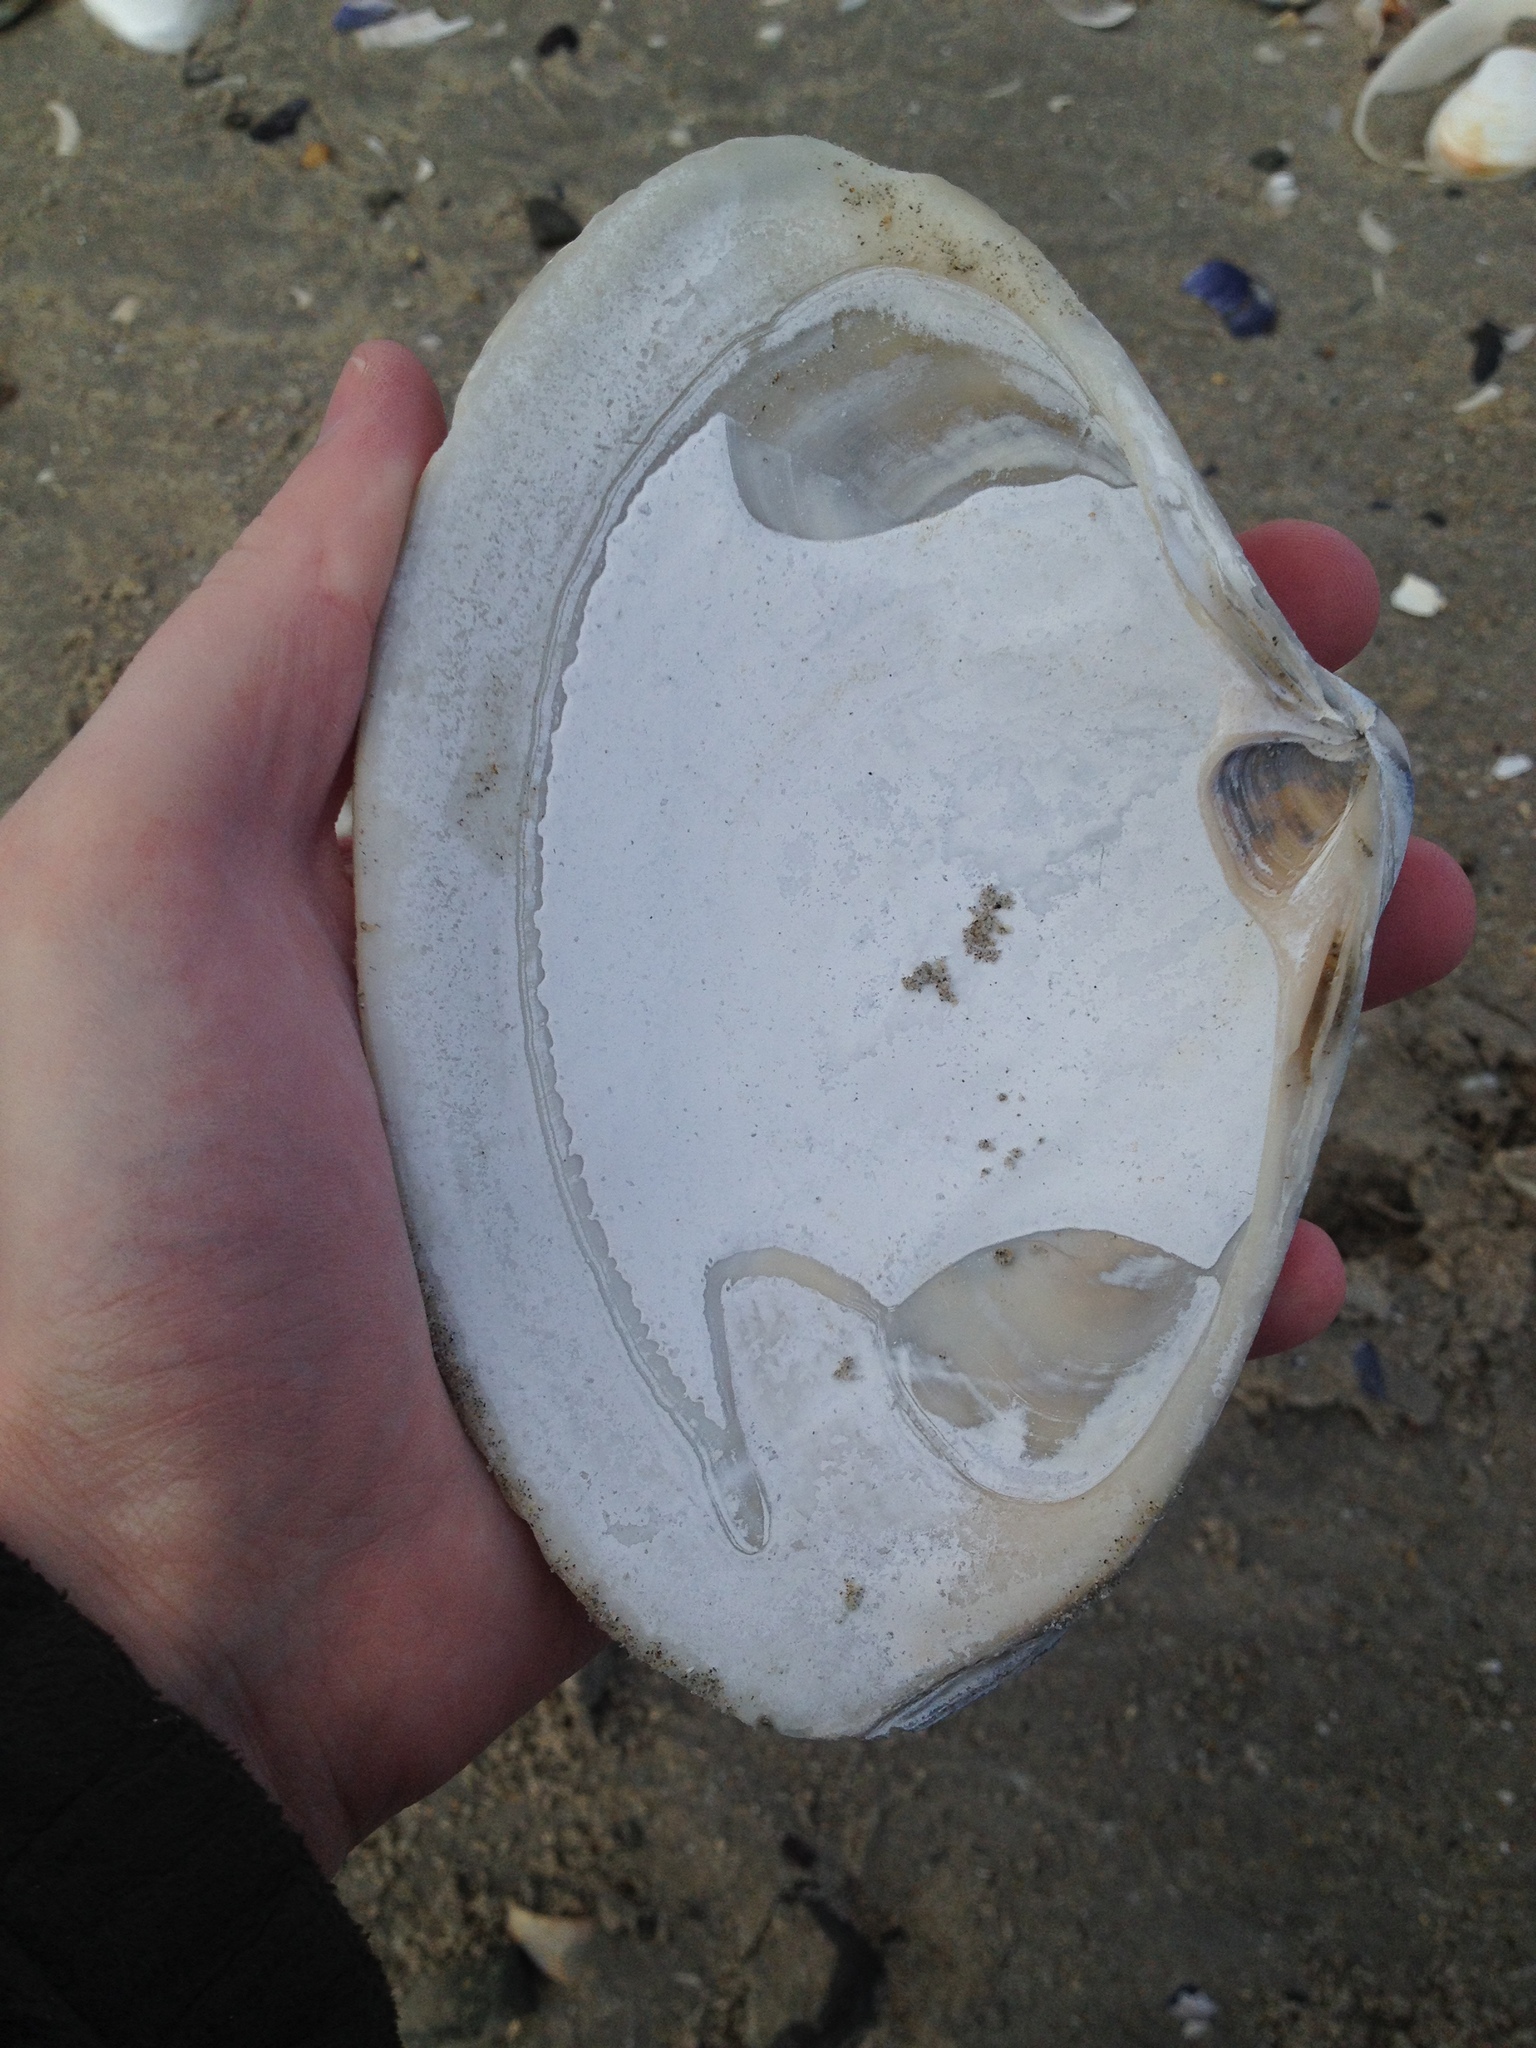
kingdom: Animalia
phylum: Mollusca
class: Bivalvia
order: Venerida
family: Mactridae
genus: Spisula
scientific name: Spisula solidissima
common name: Atlantic surf clam
